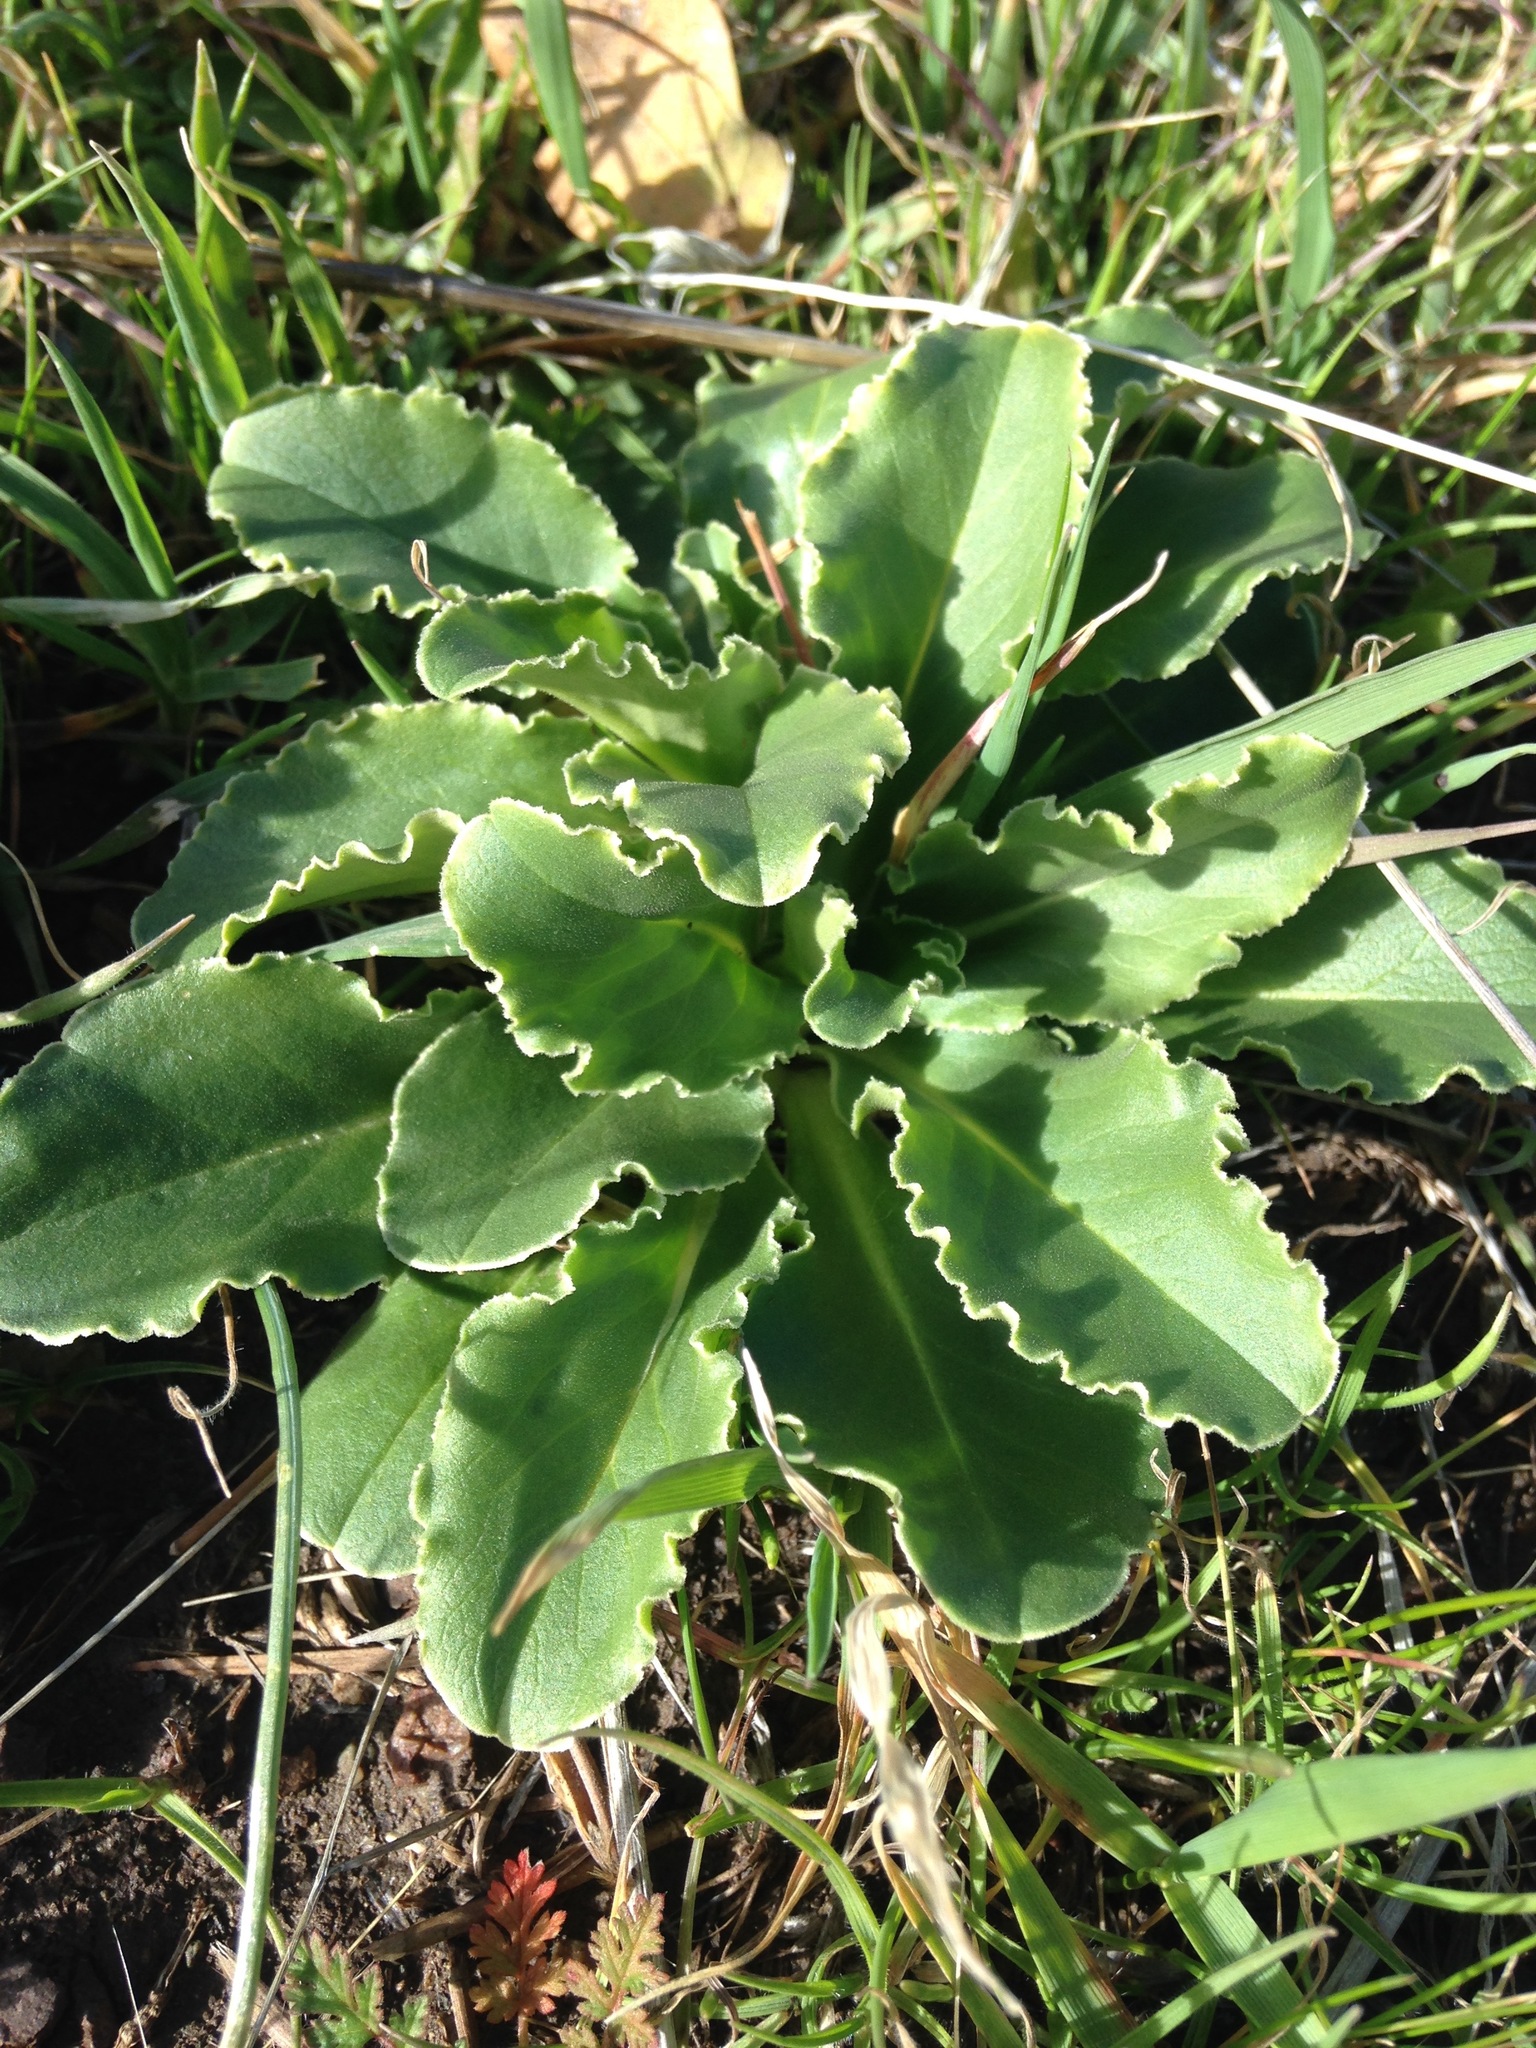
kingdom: Plantae
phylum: Tracheophyta
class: Magnoliopsida
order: Ericales
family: Primulaceae
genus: Dodecatheon
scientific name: Dodecatheon clevelandii
